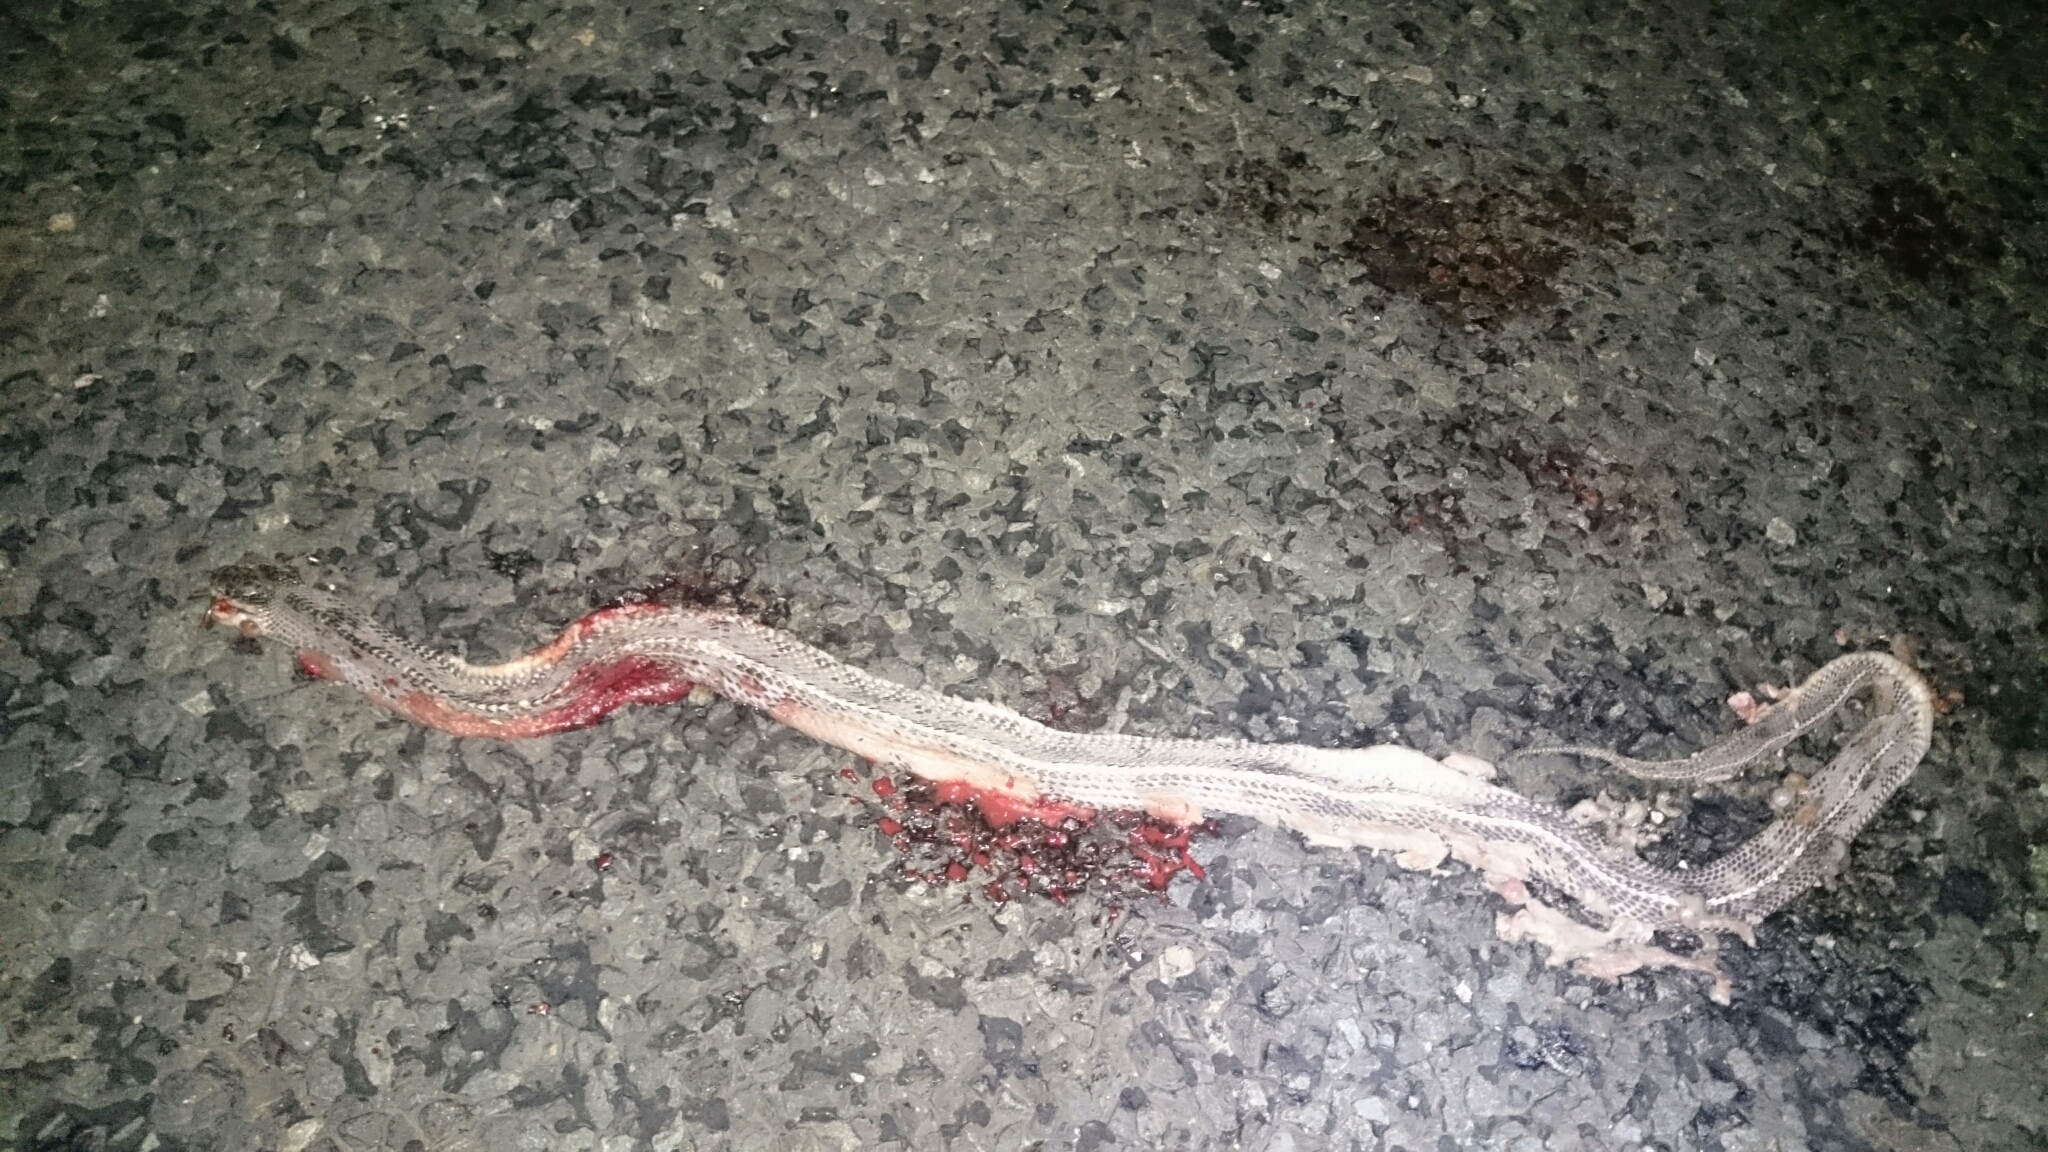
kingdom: Animalia
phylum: Chordata
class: Squamata
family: Lamprophiidae
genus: Limaformosa
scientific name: Limaformosa capensis
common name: Cape file snake
